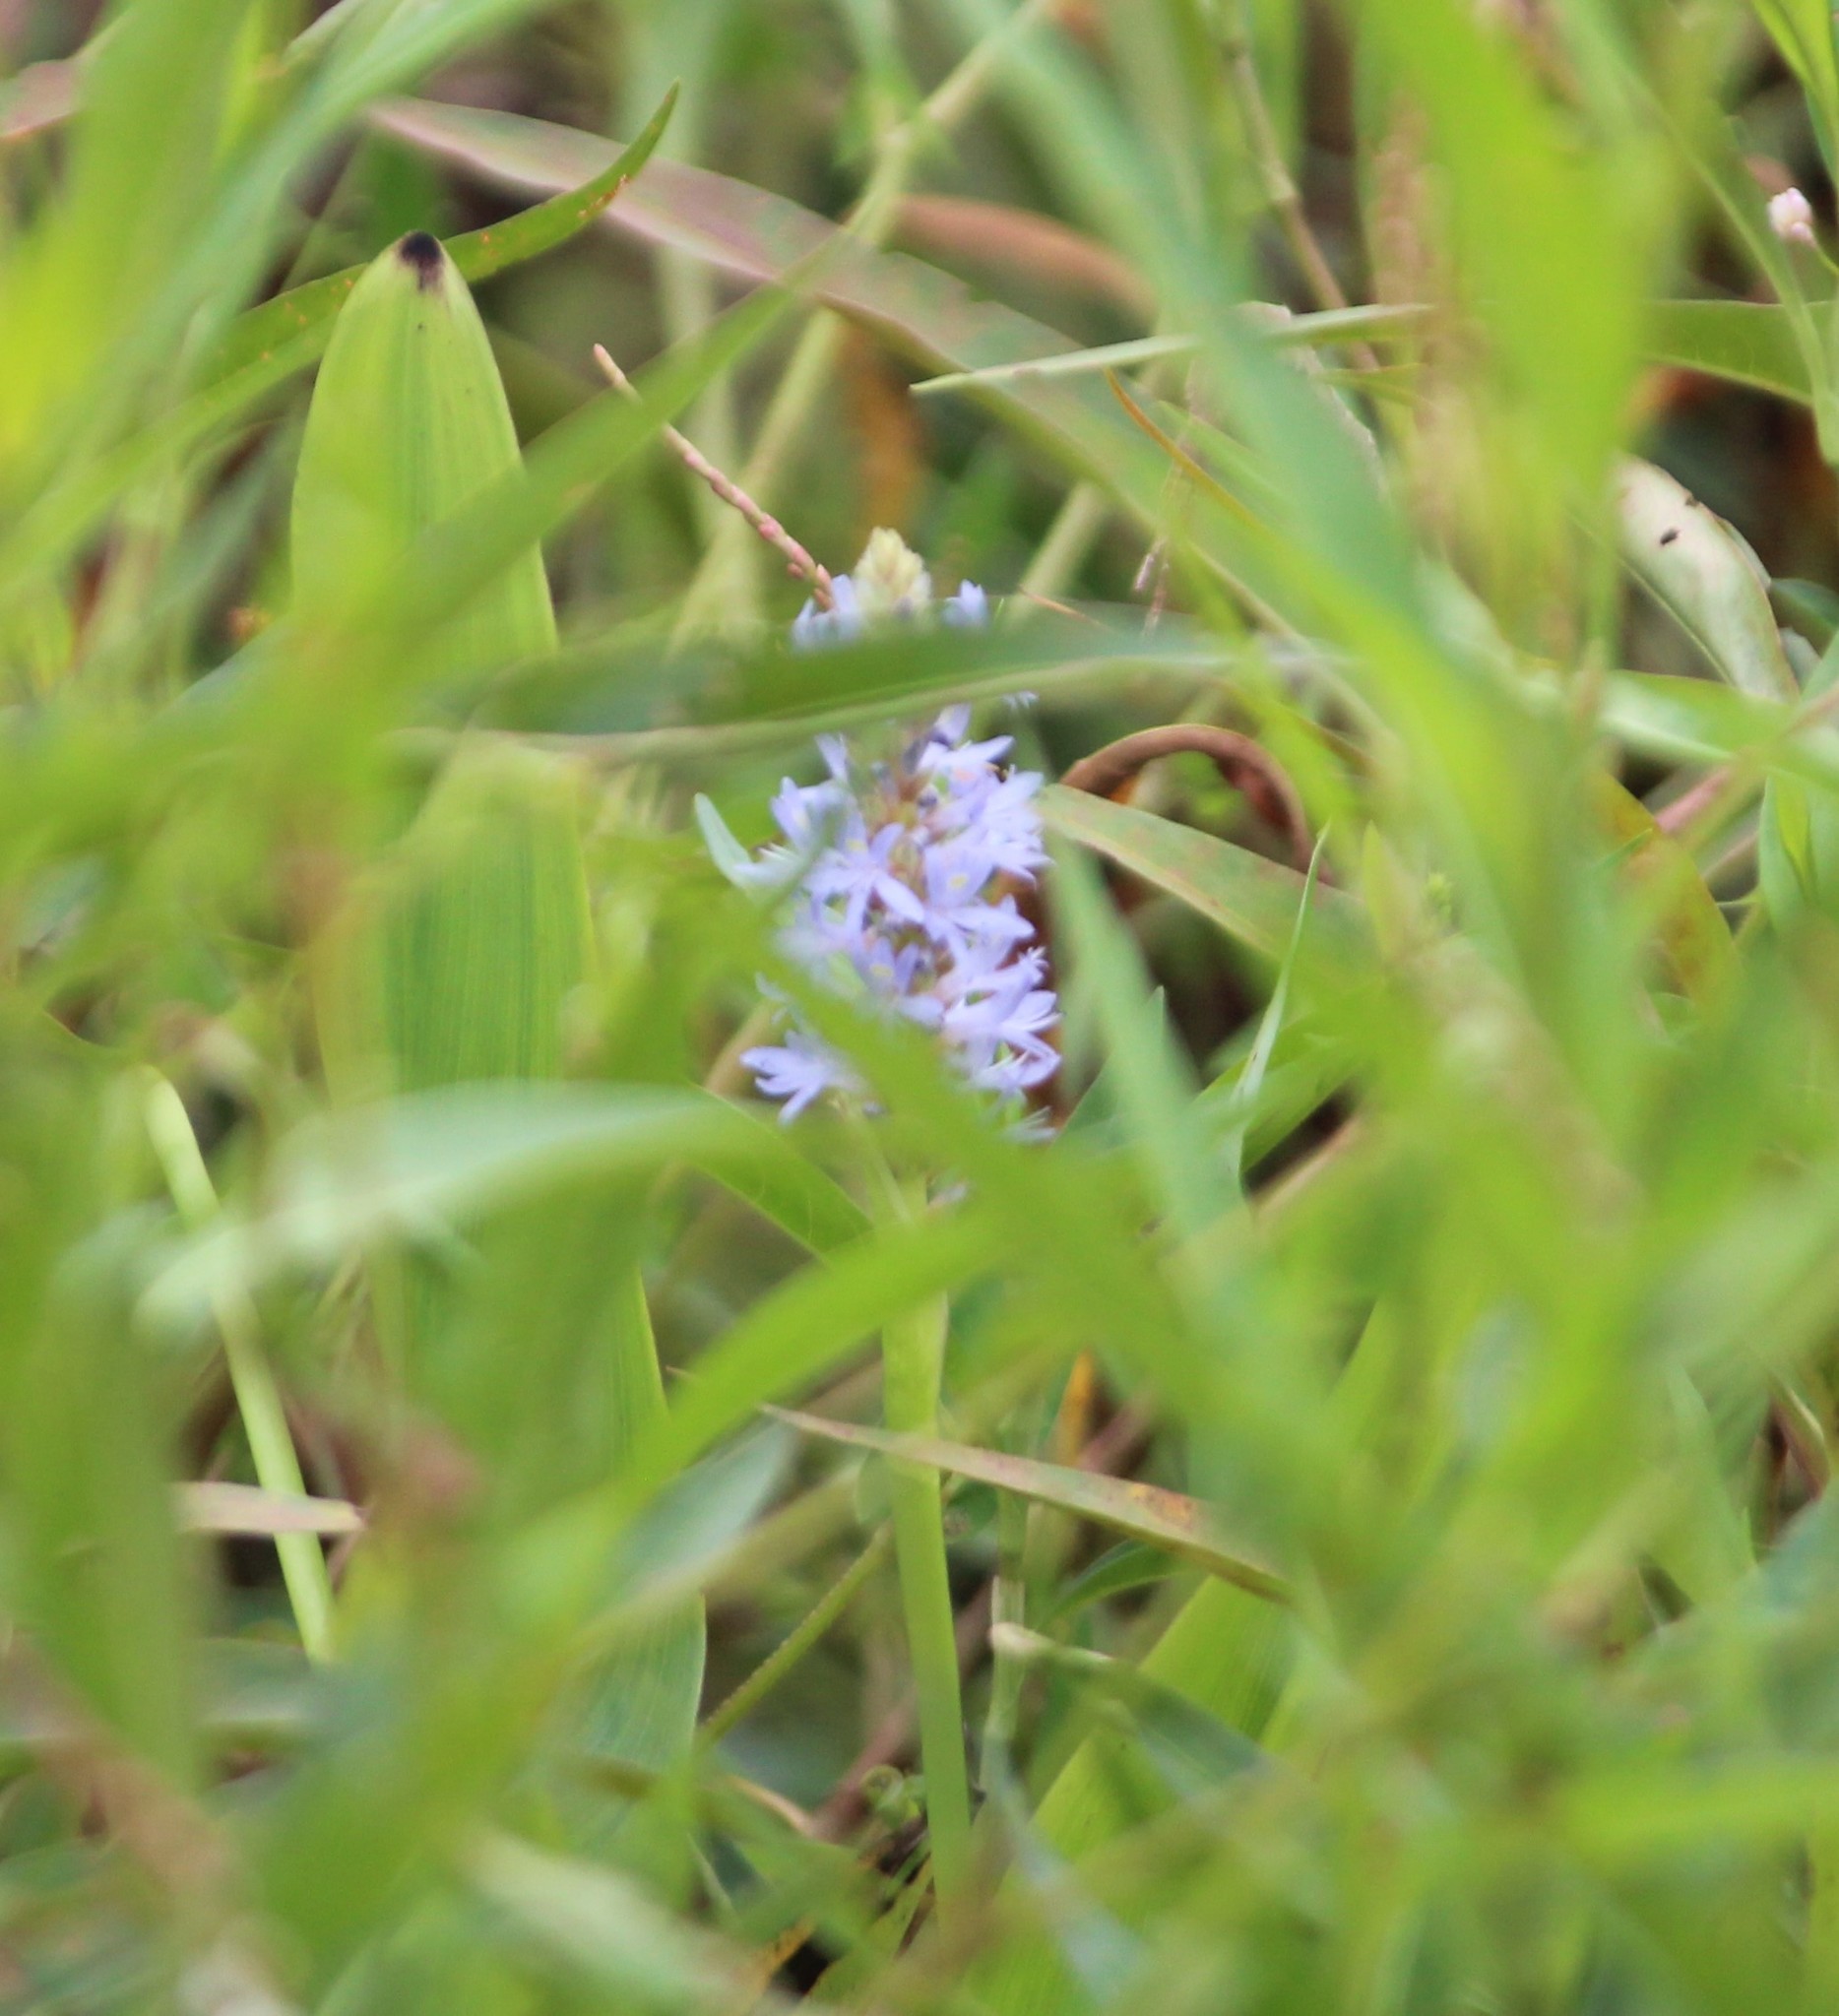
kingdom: Plantae
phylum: Tracheophyta
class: Liliopsida
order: Commelinales
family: Pontederiaceae
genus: Pontederia
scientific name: Pontederia cordata
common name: Pickerelweed
